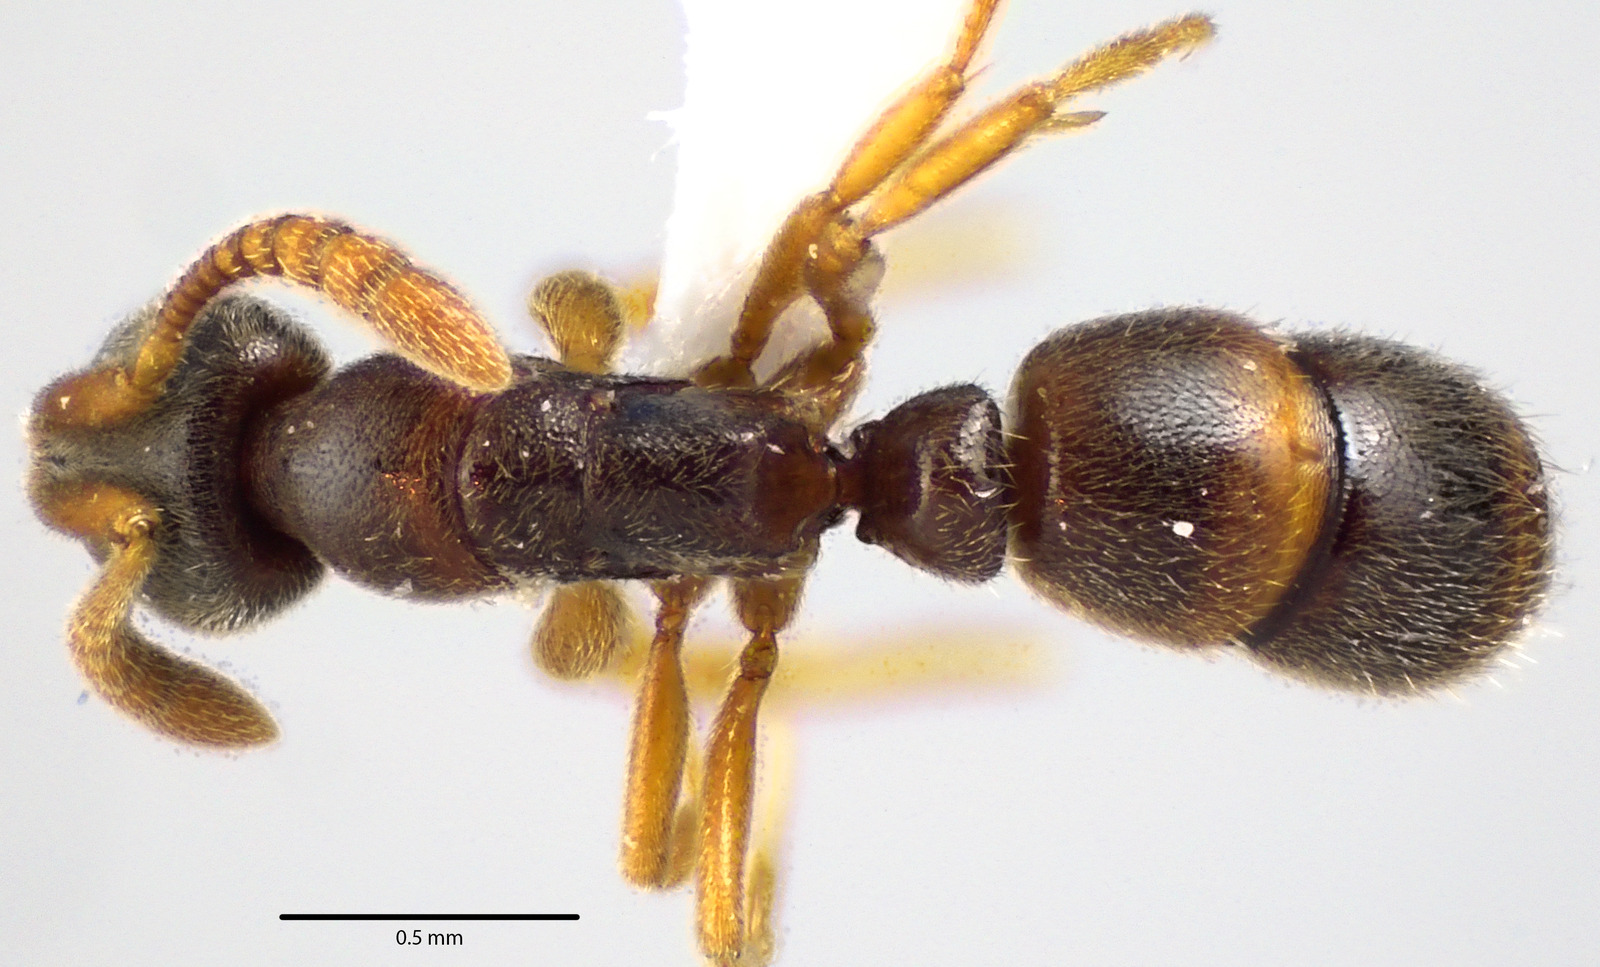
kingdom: Animalia
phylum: Arthropoda
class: Insecta
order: Hymenoptera
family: Formicidae
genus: Ponera
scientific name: Ponera pennsylvanica
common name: Pennsylvania ponera
